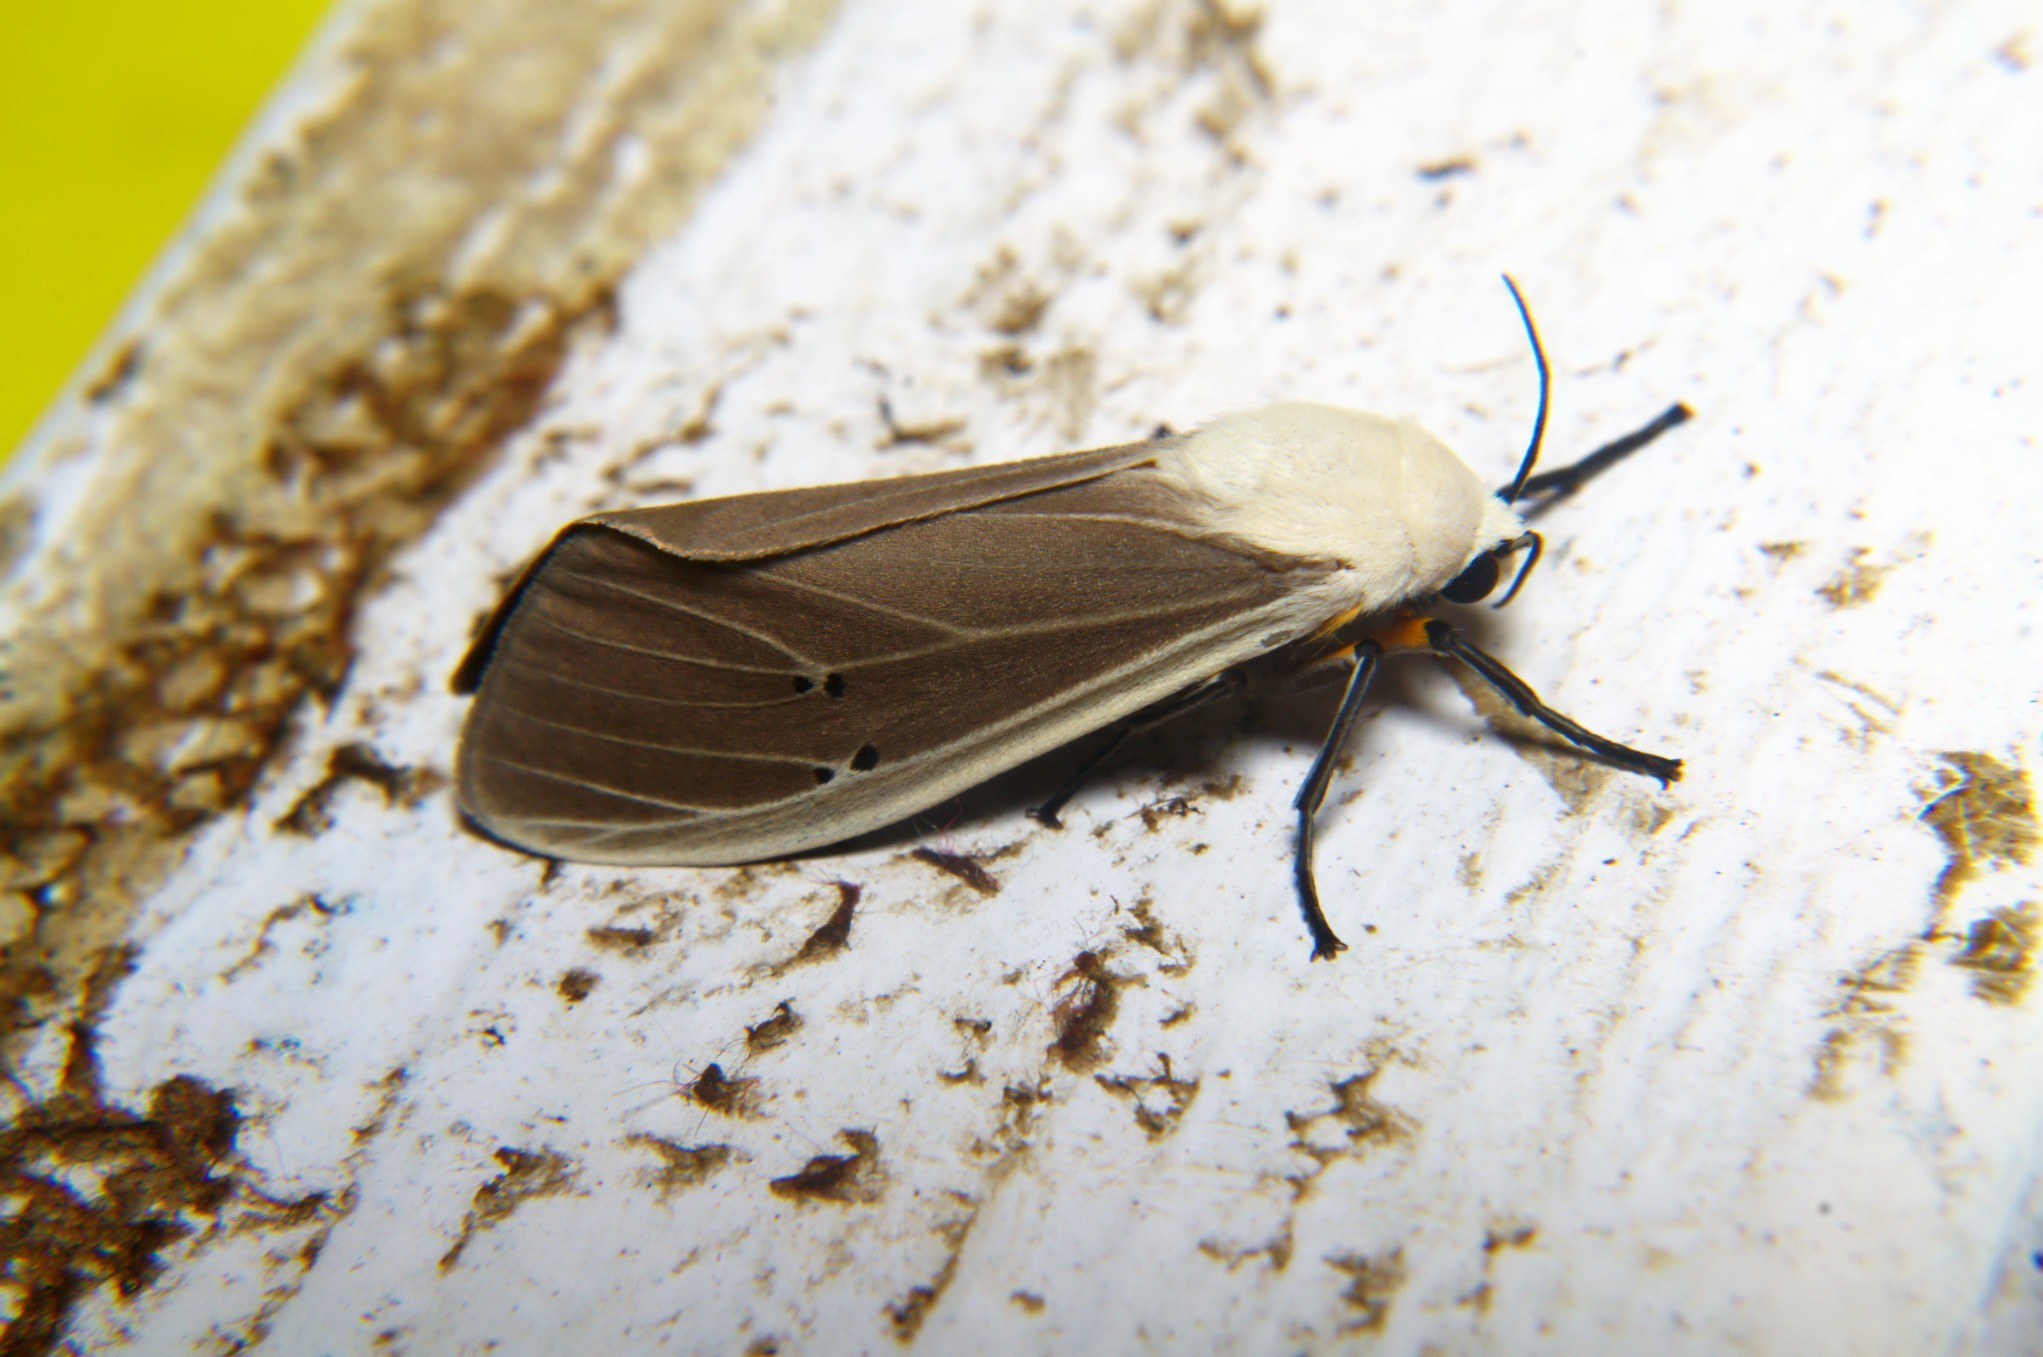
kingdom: Animalia
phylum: Arthropoda
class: Insecta
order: Lepidoptera
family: Erebidae
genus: Creatonotos
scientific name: Creatonotos transiens
